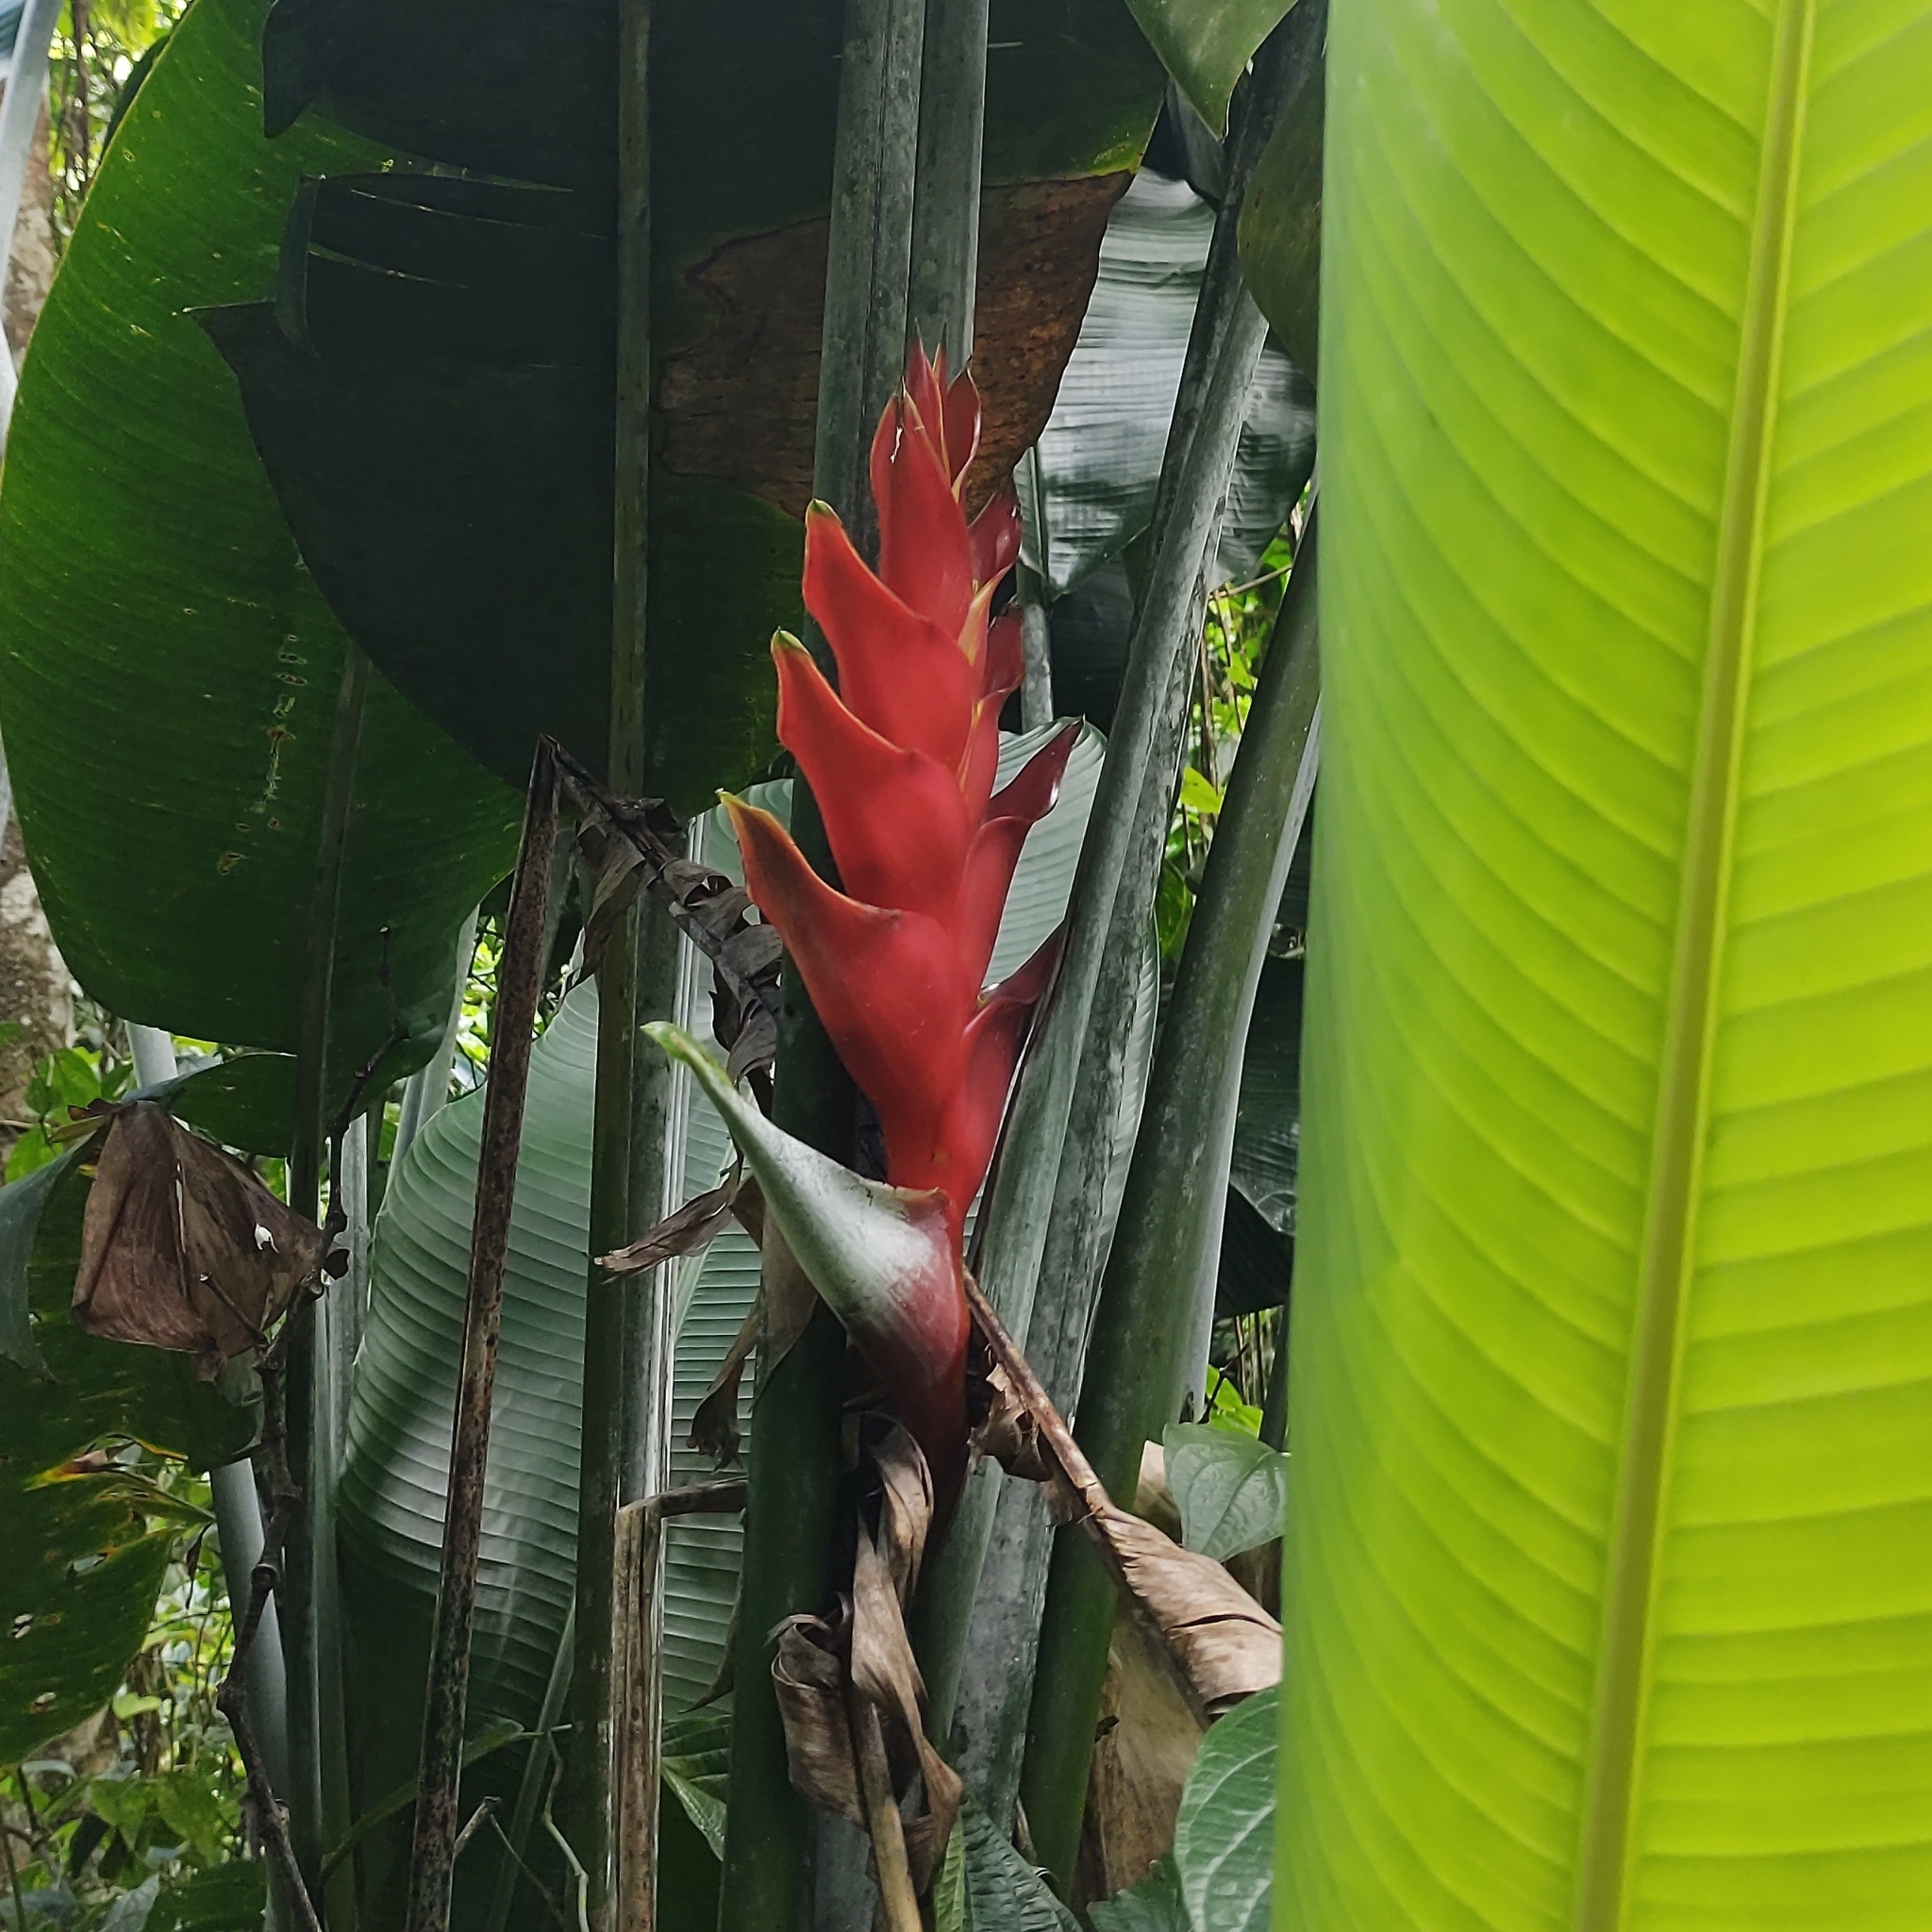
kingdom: Plantae
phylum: Tracheophyta
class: Liliopsida
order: Zingiberales
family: Heliconiaceae
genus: Heliconia
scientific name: Heliconia caribaea
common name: Wild plantain
